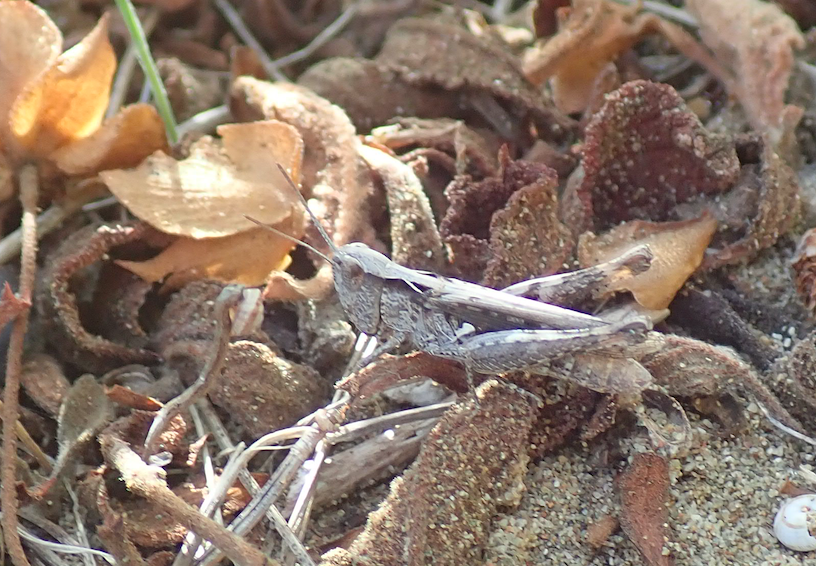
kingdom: Animalia
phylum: Arthropoda
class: Insecta
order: Orthoptera
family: Acrididae
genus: Chorthippus
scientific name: Chorthippus mollis
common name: Lesser field grasshopper
